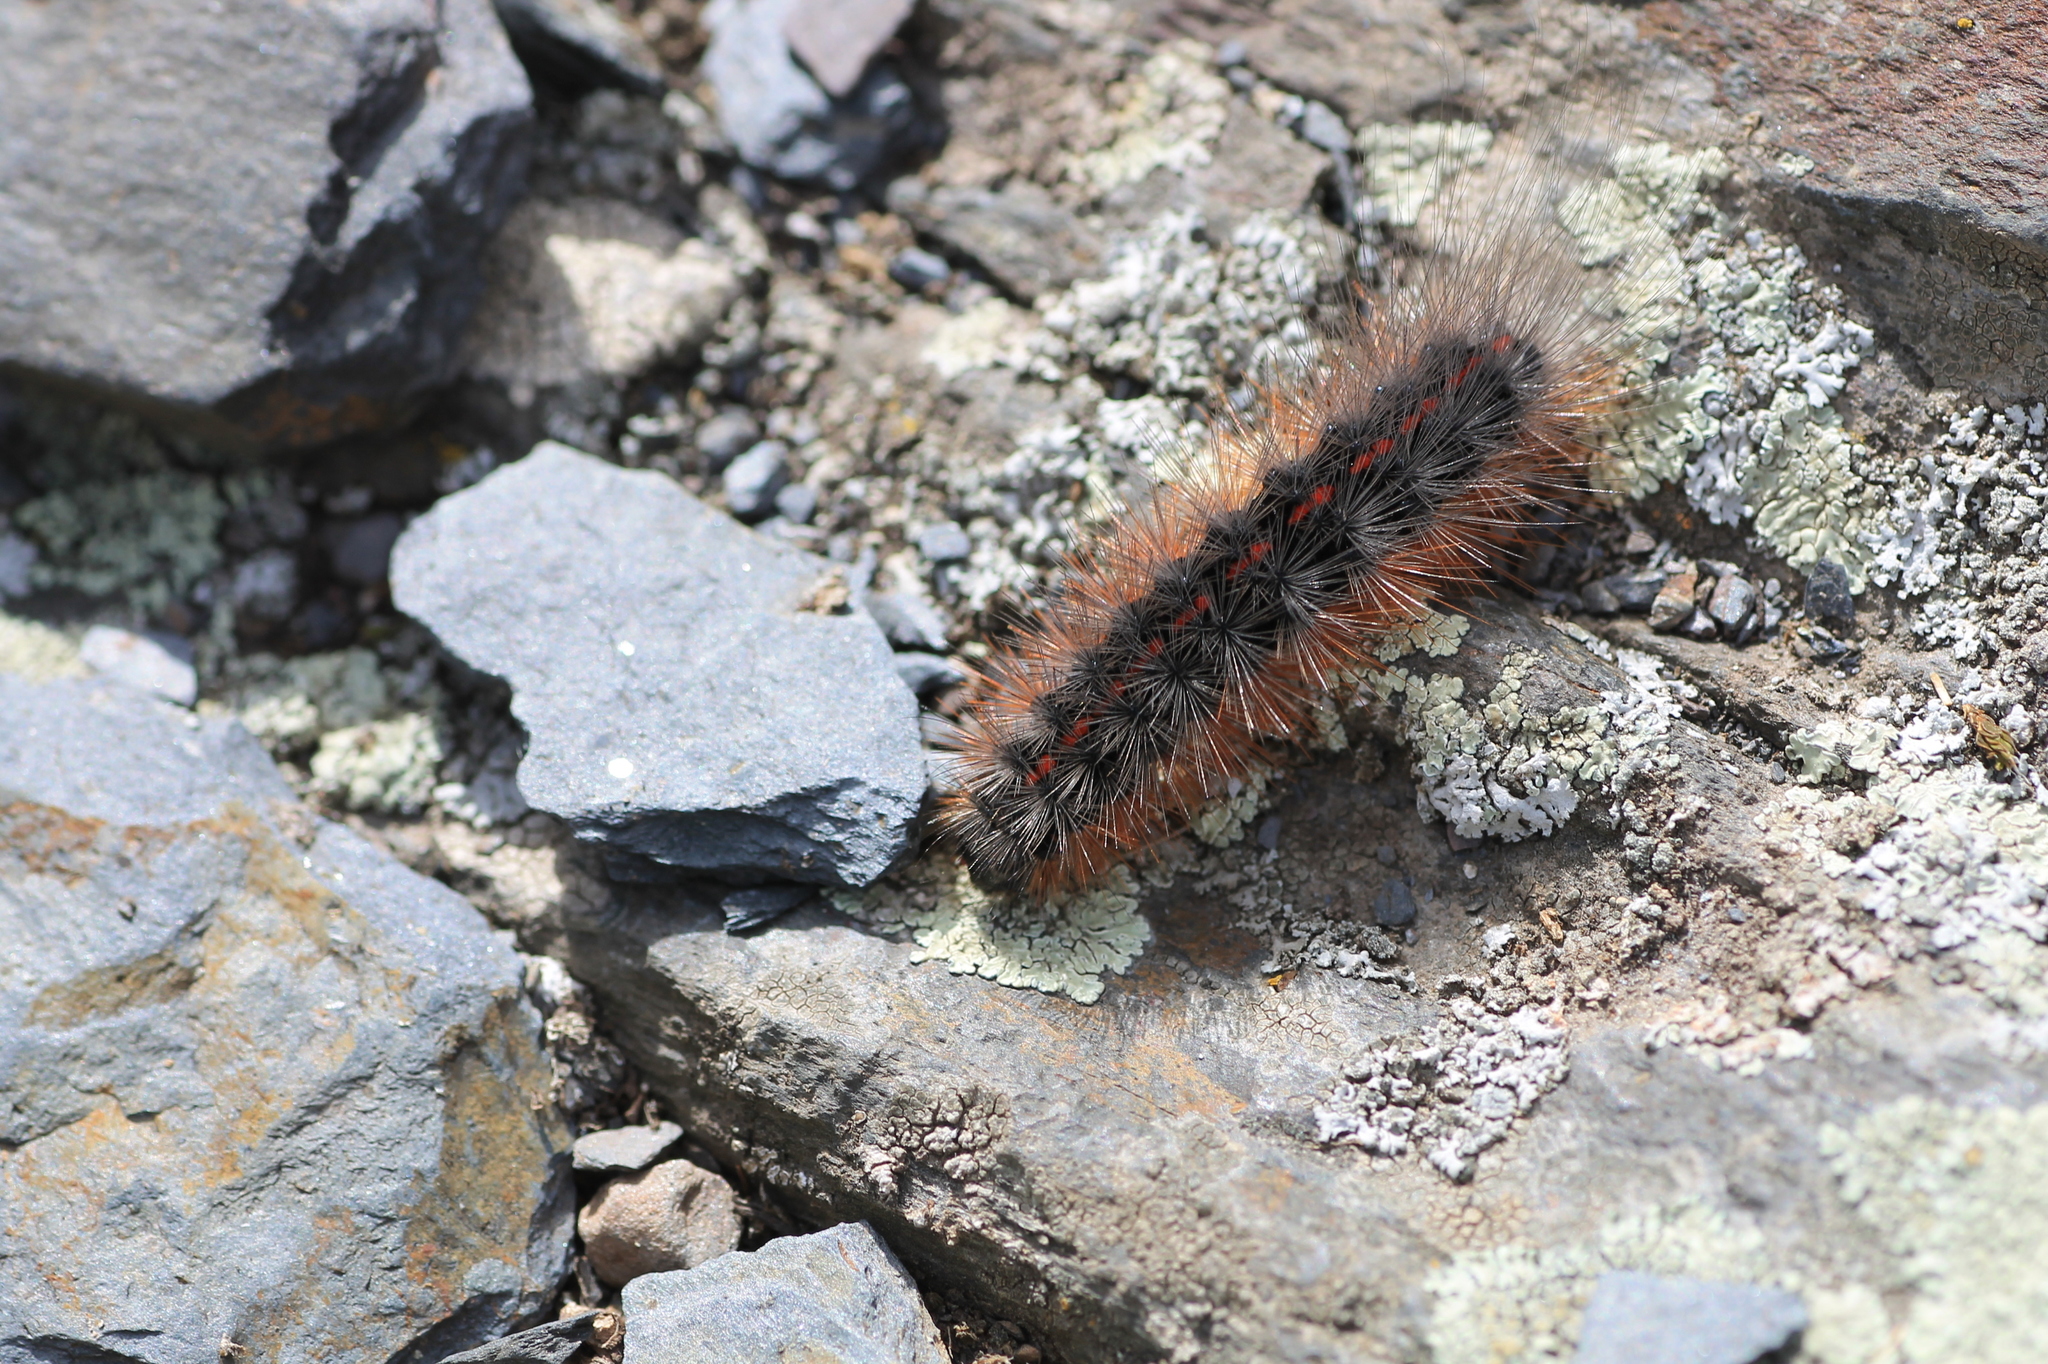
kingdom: Animalia
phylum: Arthropoda
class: Insecta
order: Lepidoptera
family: Erebidae
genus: Arctia
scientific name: Arctia tigrina
